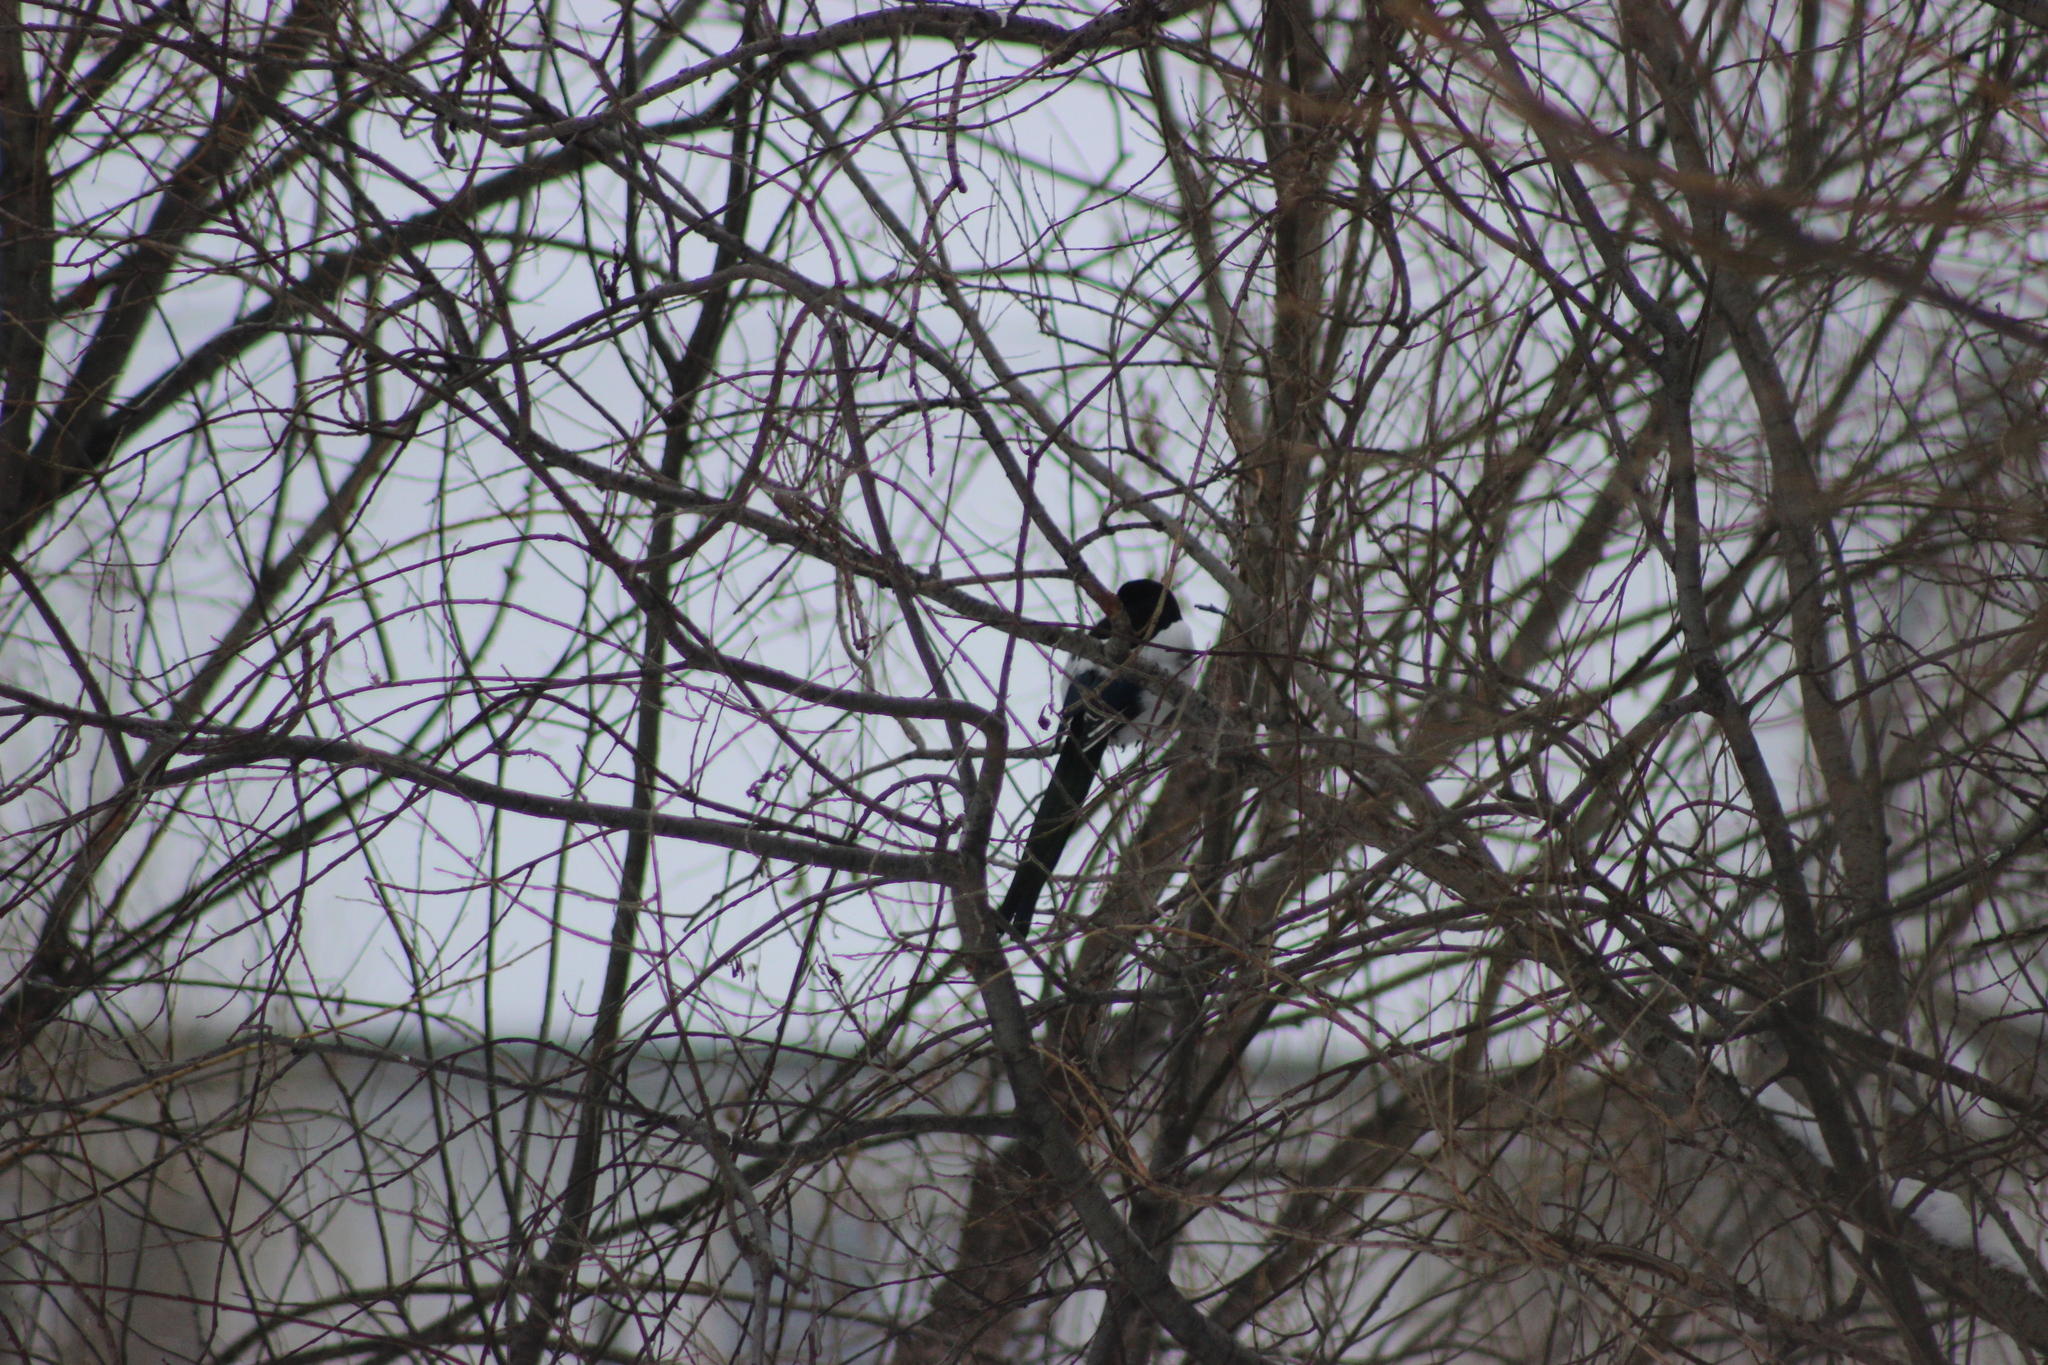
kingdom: Animalia
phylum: Chordata
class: Aves
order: Passeriformes
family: Corvidae
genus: Pica
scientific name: Pica pica
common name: Eurasian magpie
